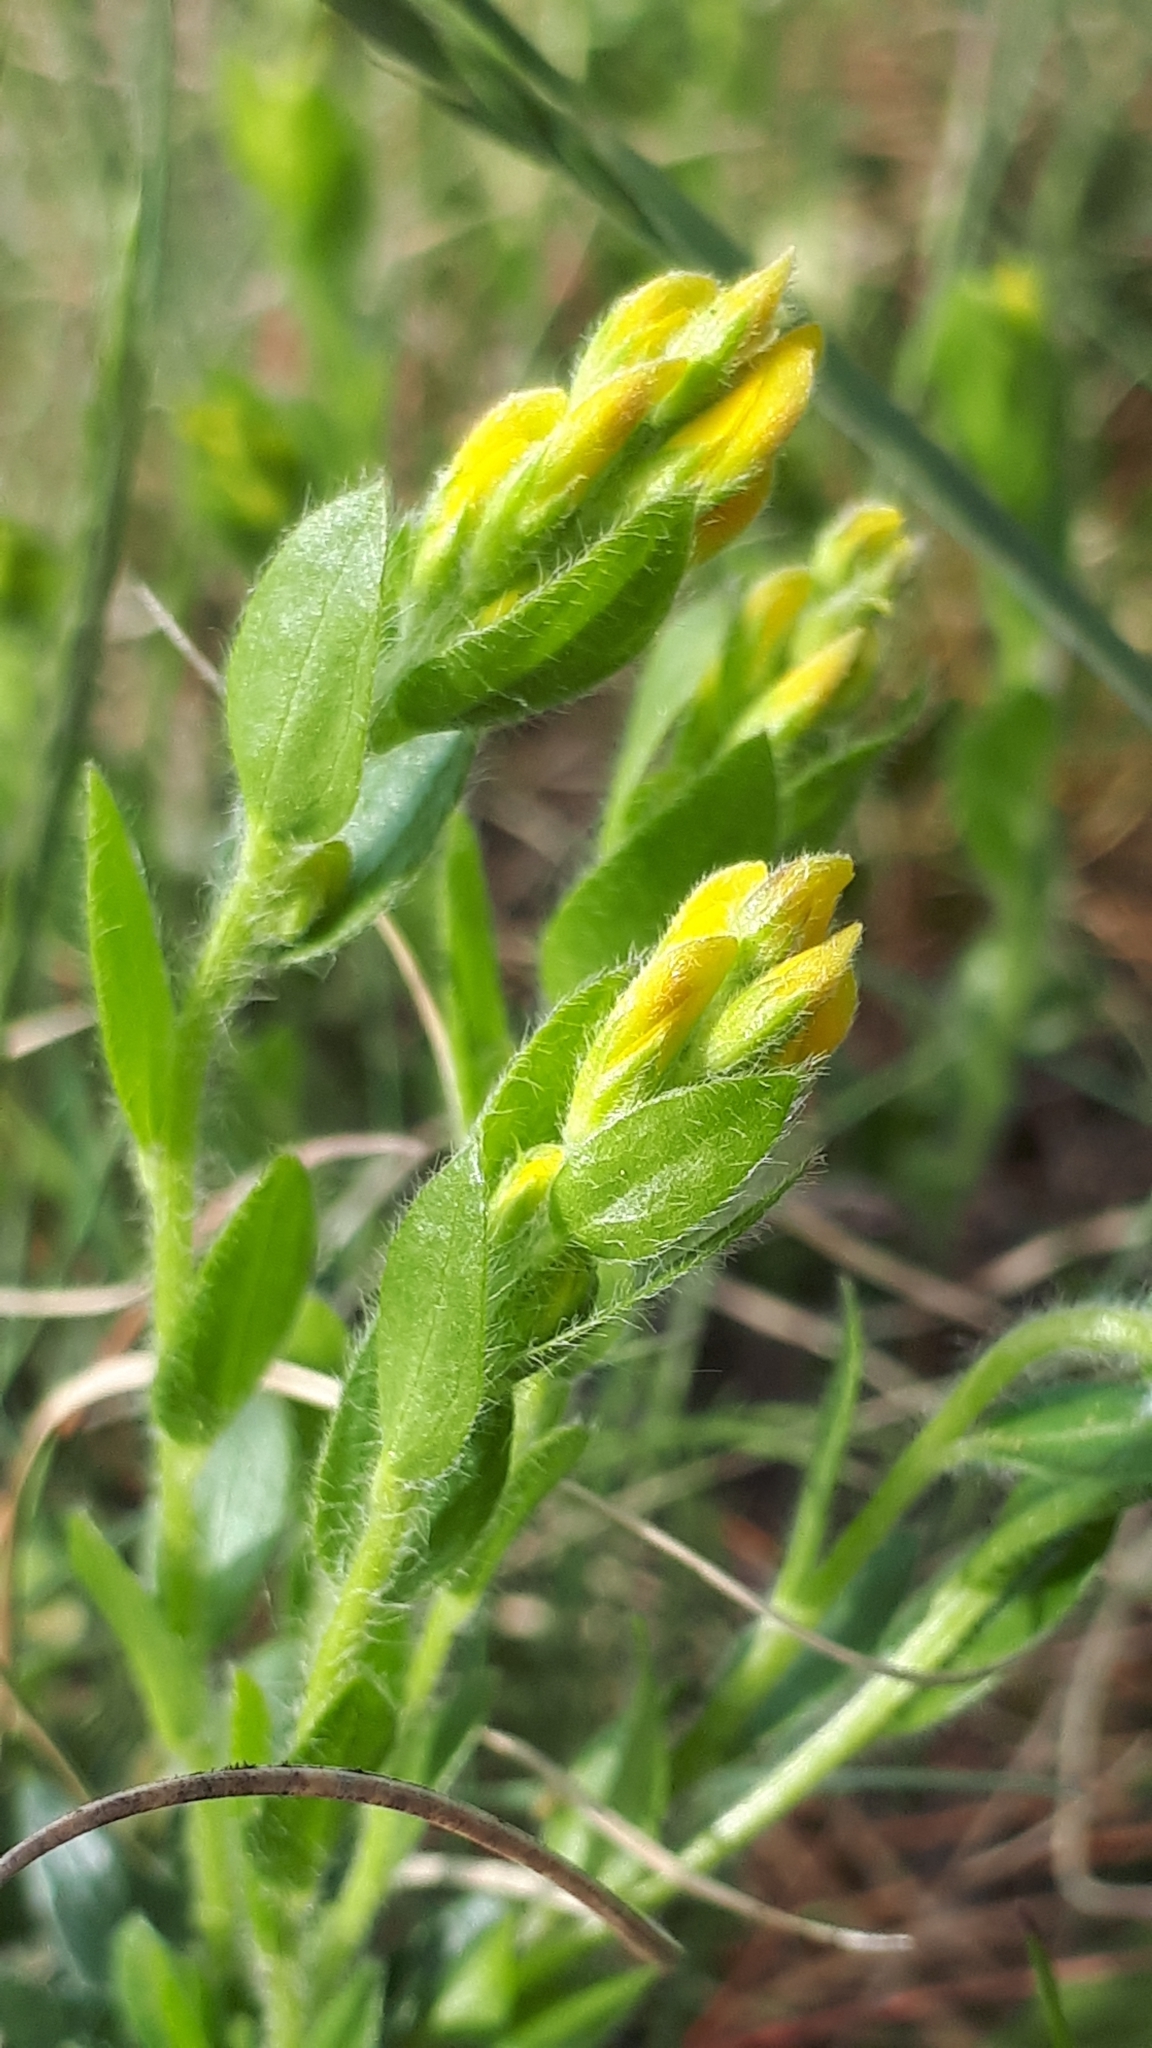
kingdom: Plantae
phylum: Tracheophyta
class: Magnoliopsida
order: Fabales
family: Fabaceae
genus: Genista
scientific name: Genista tinctoria
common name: Dyer's greenweed
